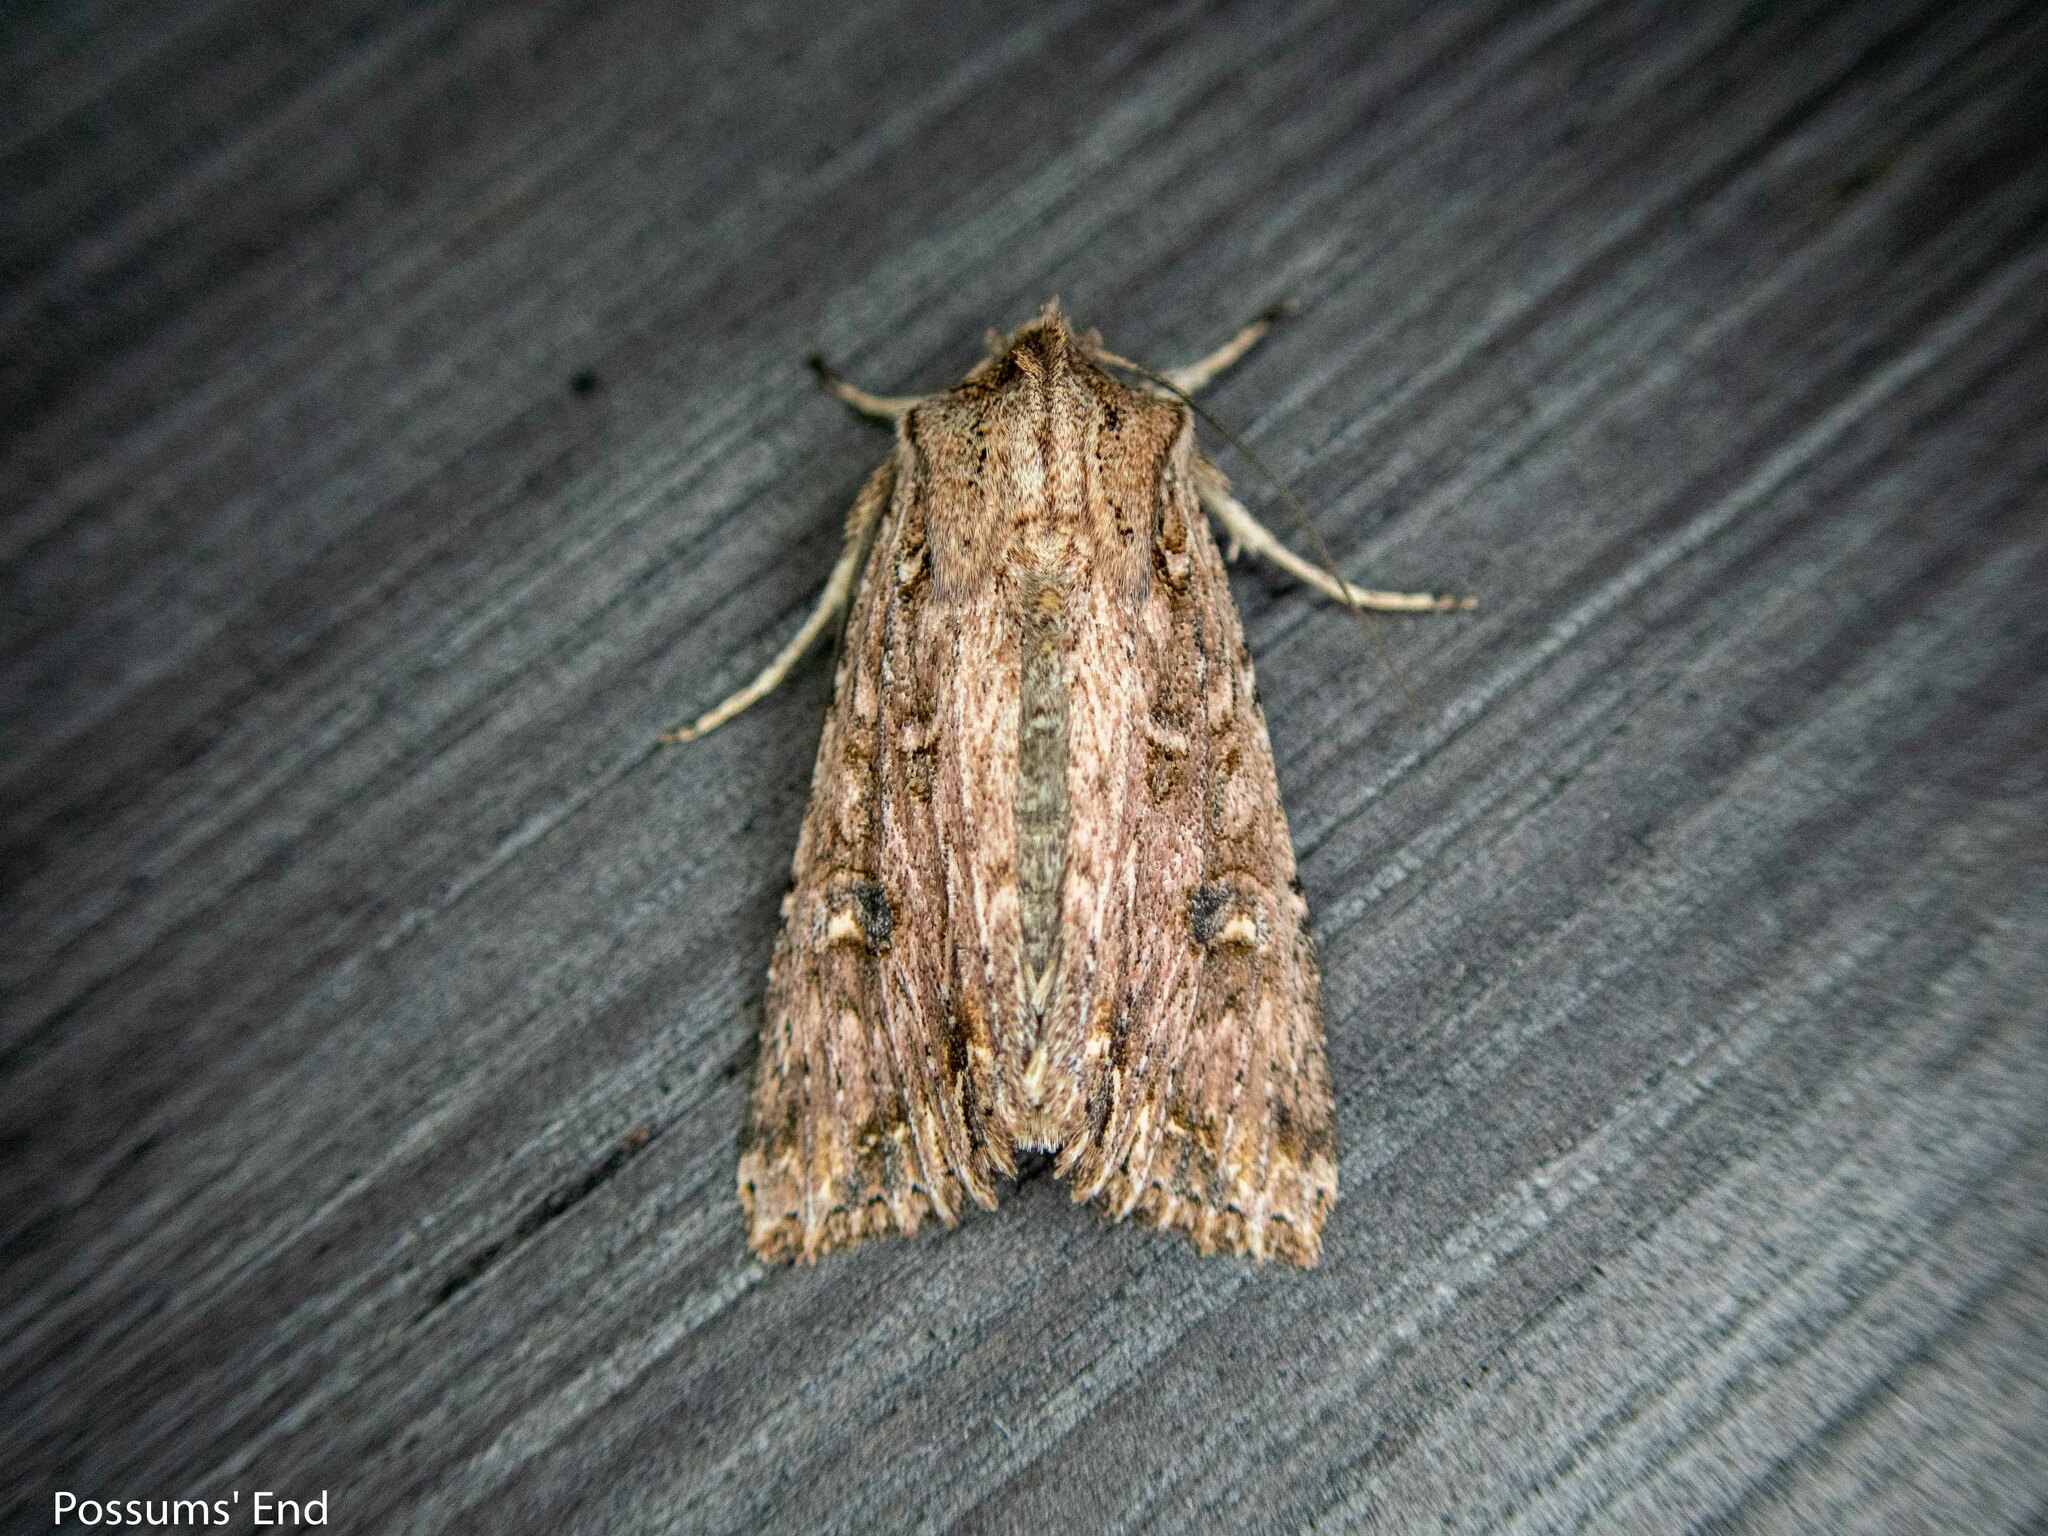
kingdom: Animalia
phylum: Arthropoda
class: Insecta
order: Lepidoptera
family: Noctuidae
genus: Ichneutica
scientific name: Ichneutica lignana
